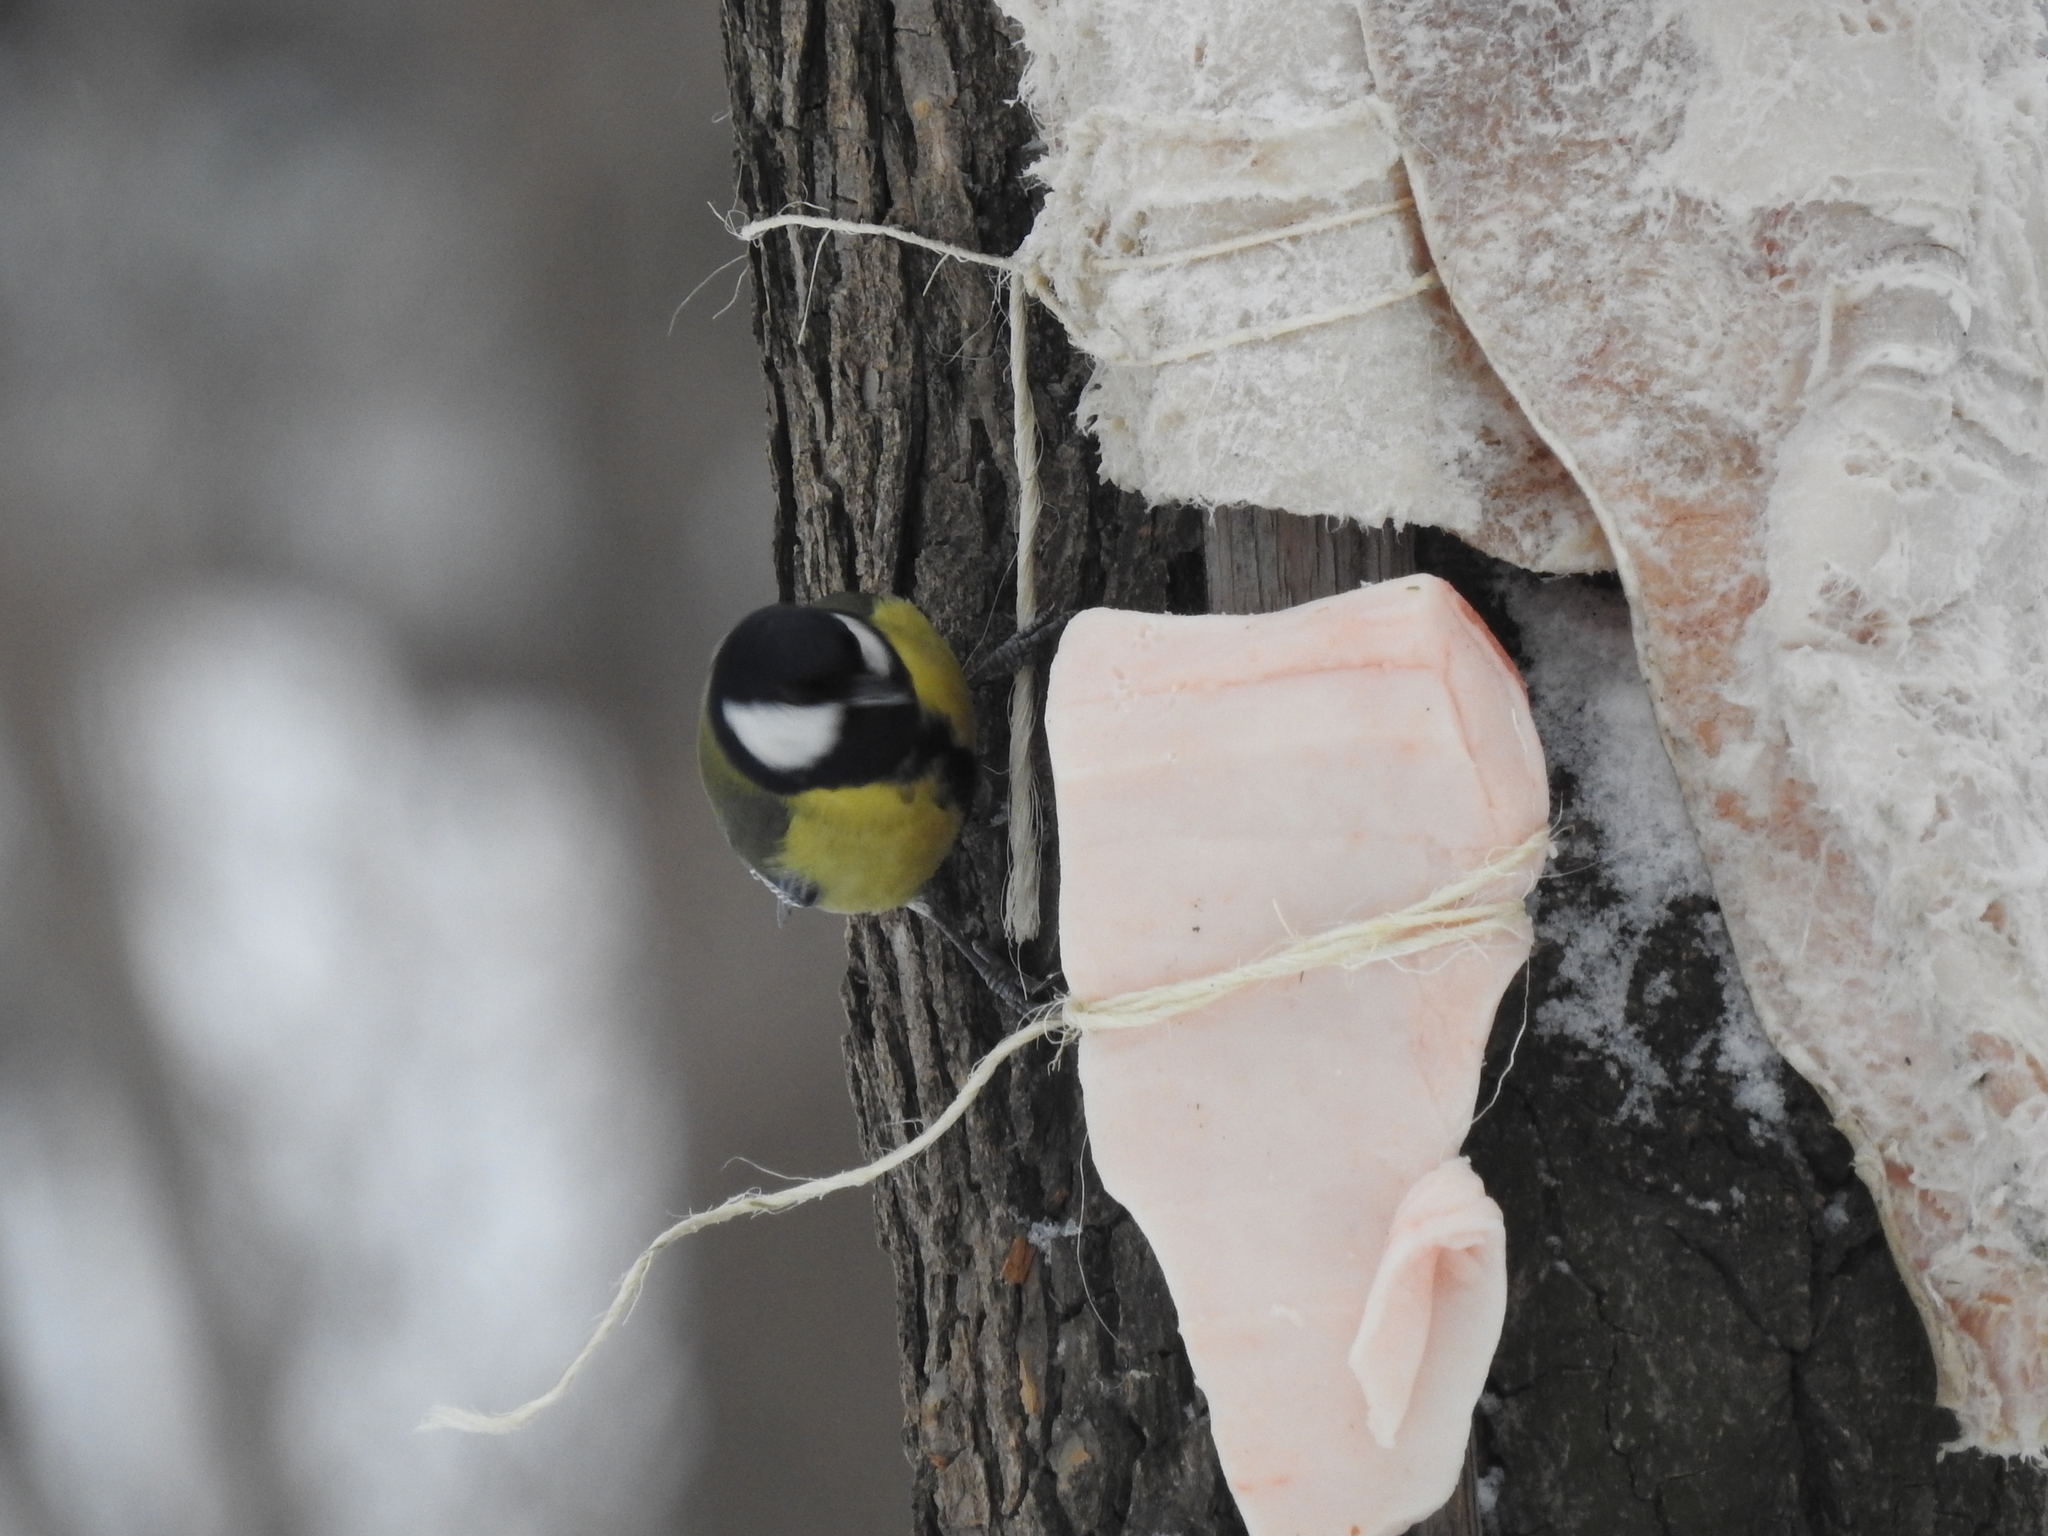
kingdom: Animalia
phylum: Chordata
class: Aves
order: Passeriformes
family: Paridae
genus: Parus
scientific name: Parus major
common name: Great tit
